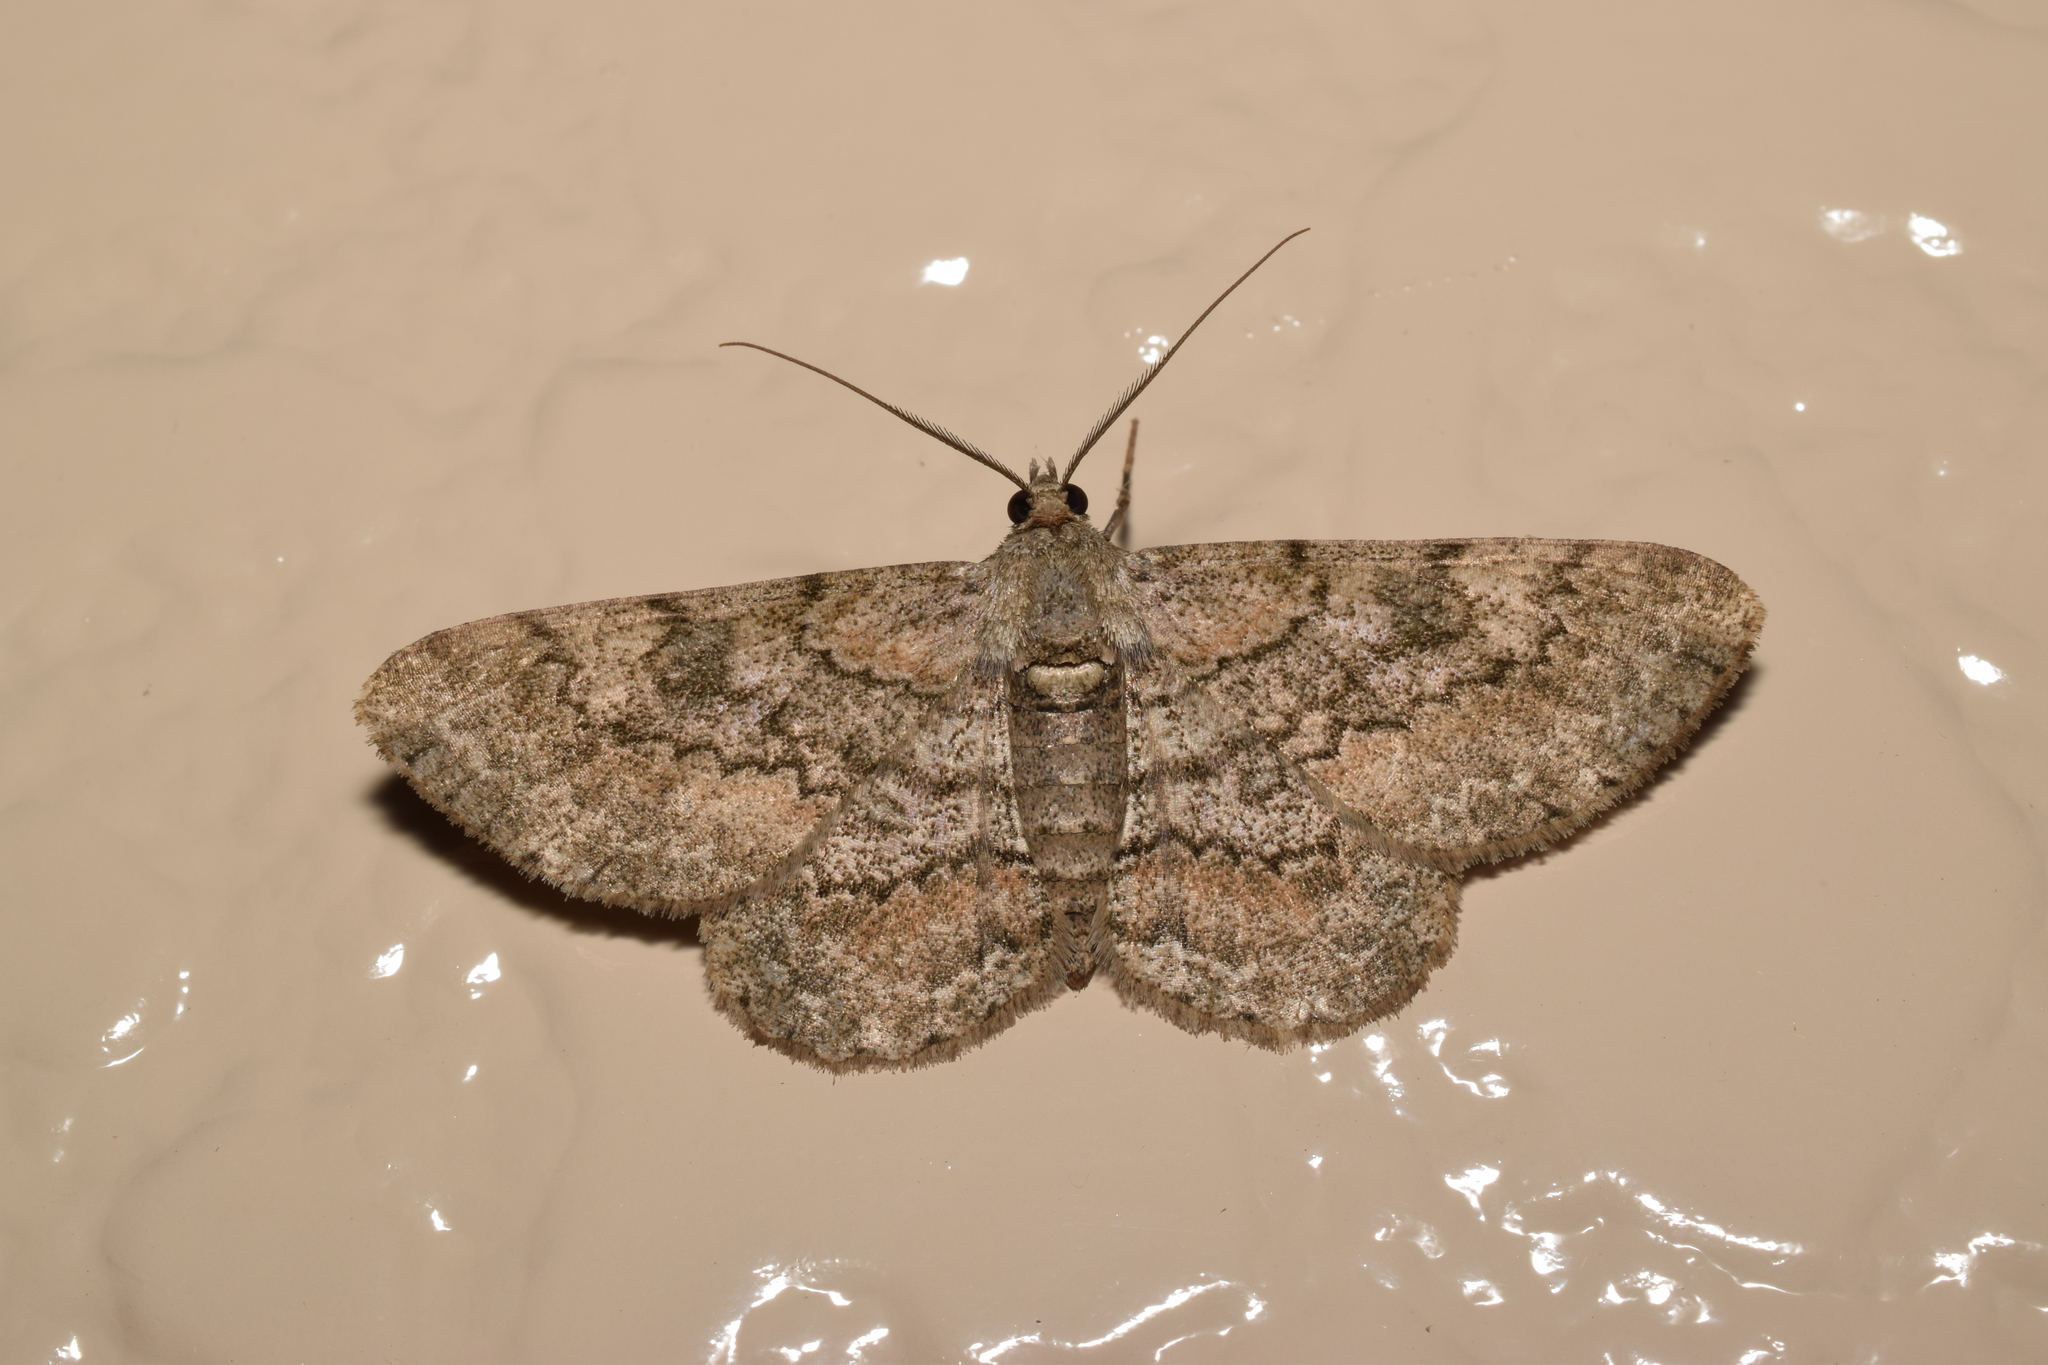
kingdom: Animalia
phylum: Arthropoda
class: Insecta
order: Lepidoptera
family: Geometridae
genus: Hypomecis
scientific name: Hypomecis punctinalis
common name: Pale oak beauty
